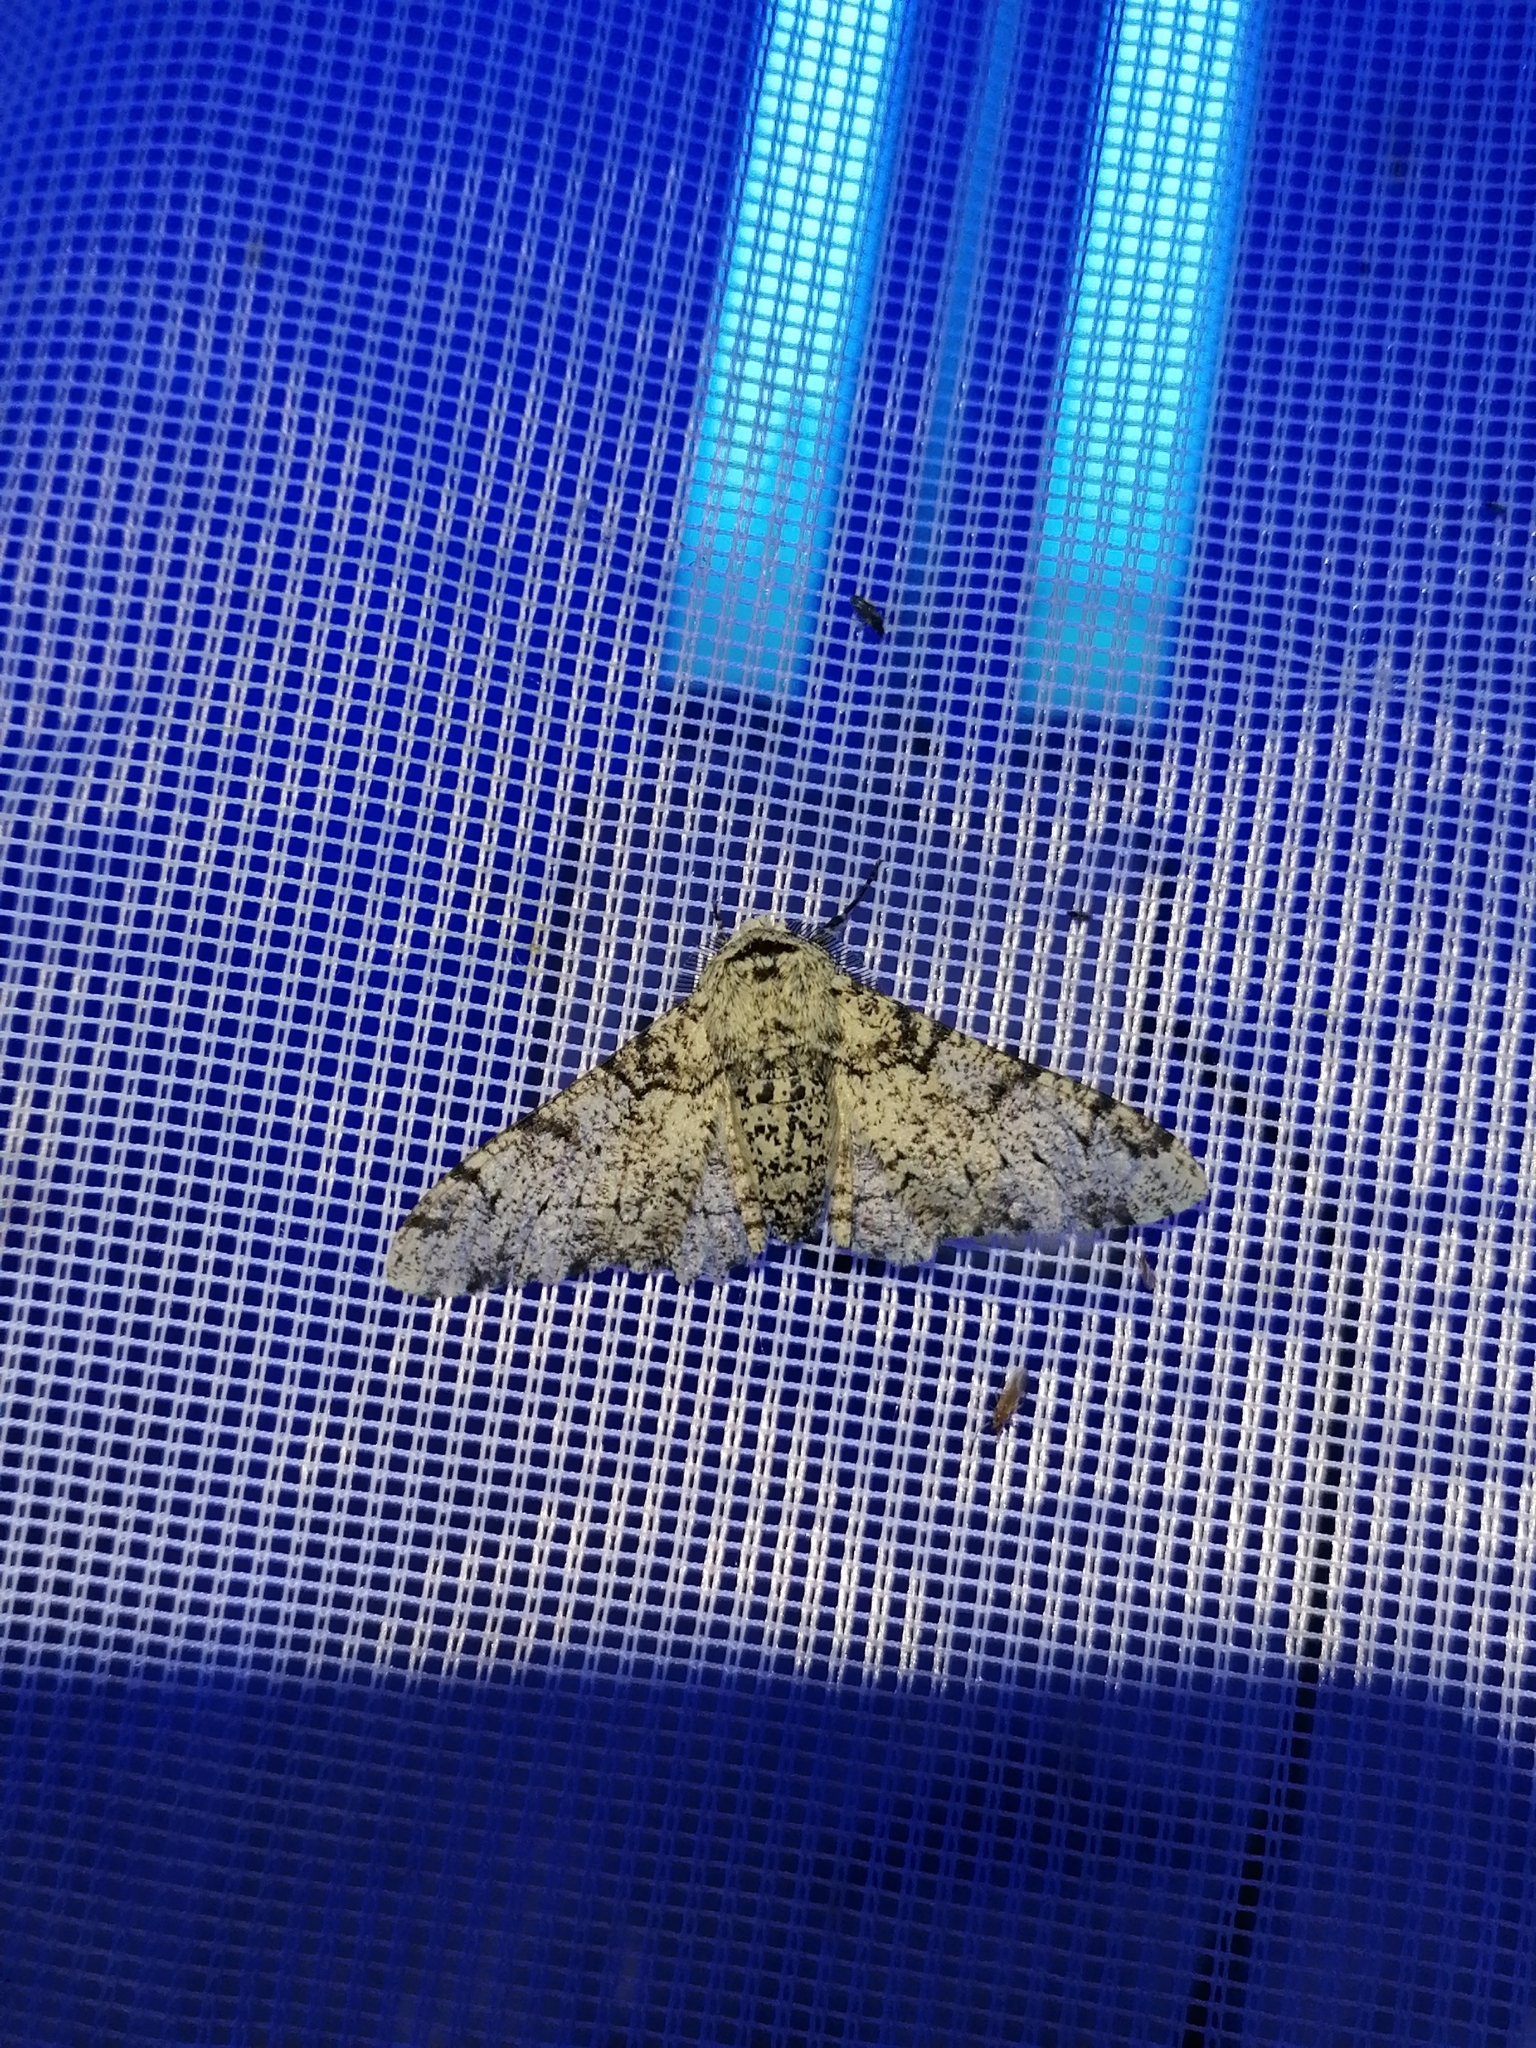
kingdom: Animalia
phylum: Arthropoda
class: Insecta
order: Lepidoptera
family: Geometridae
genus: Biston
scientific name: Biston betularia
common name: Peppered moth
